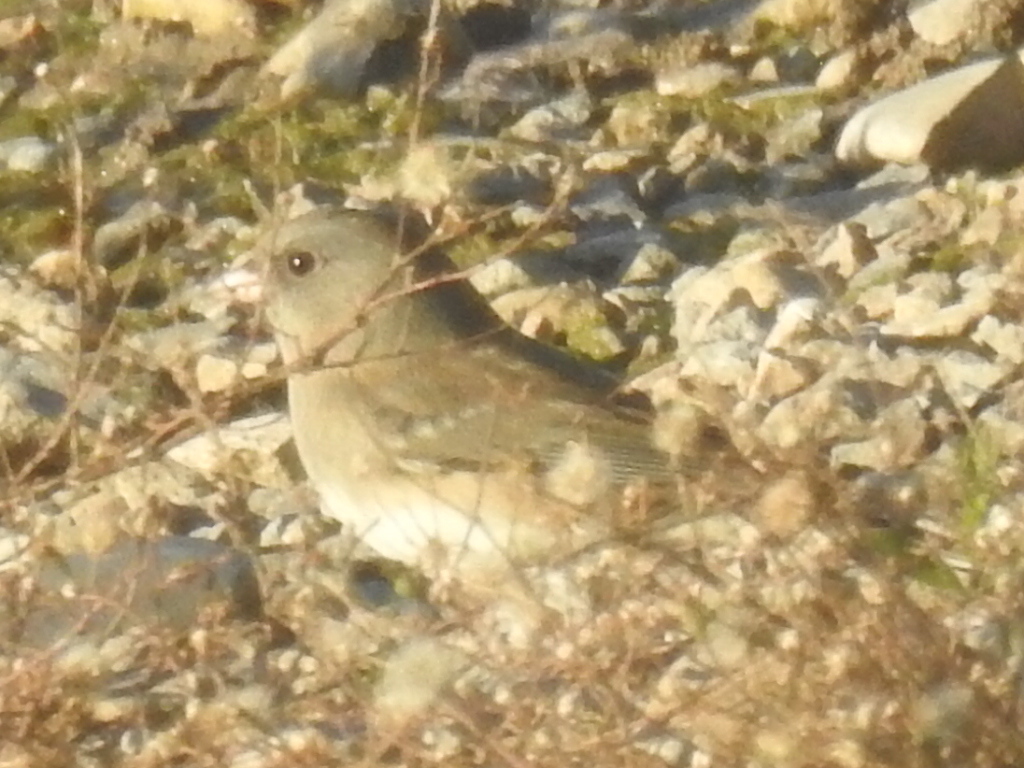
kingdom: Animalia
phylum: Chordata
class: Aves
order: Passeriformes
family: Passerellidae
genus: Junco
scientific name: Junco hyemalis
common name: Dark-eyed junco
